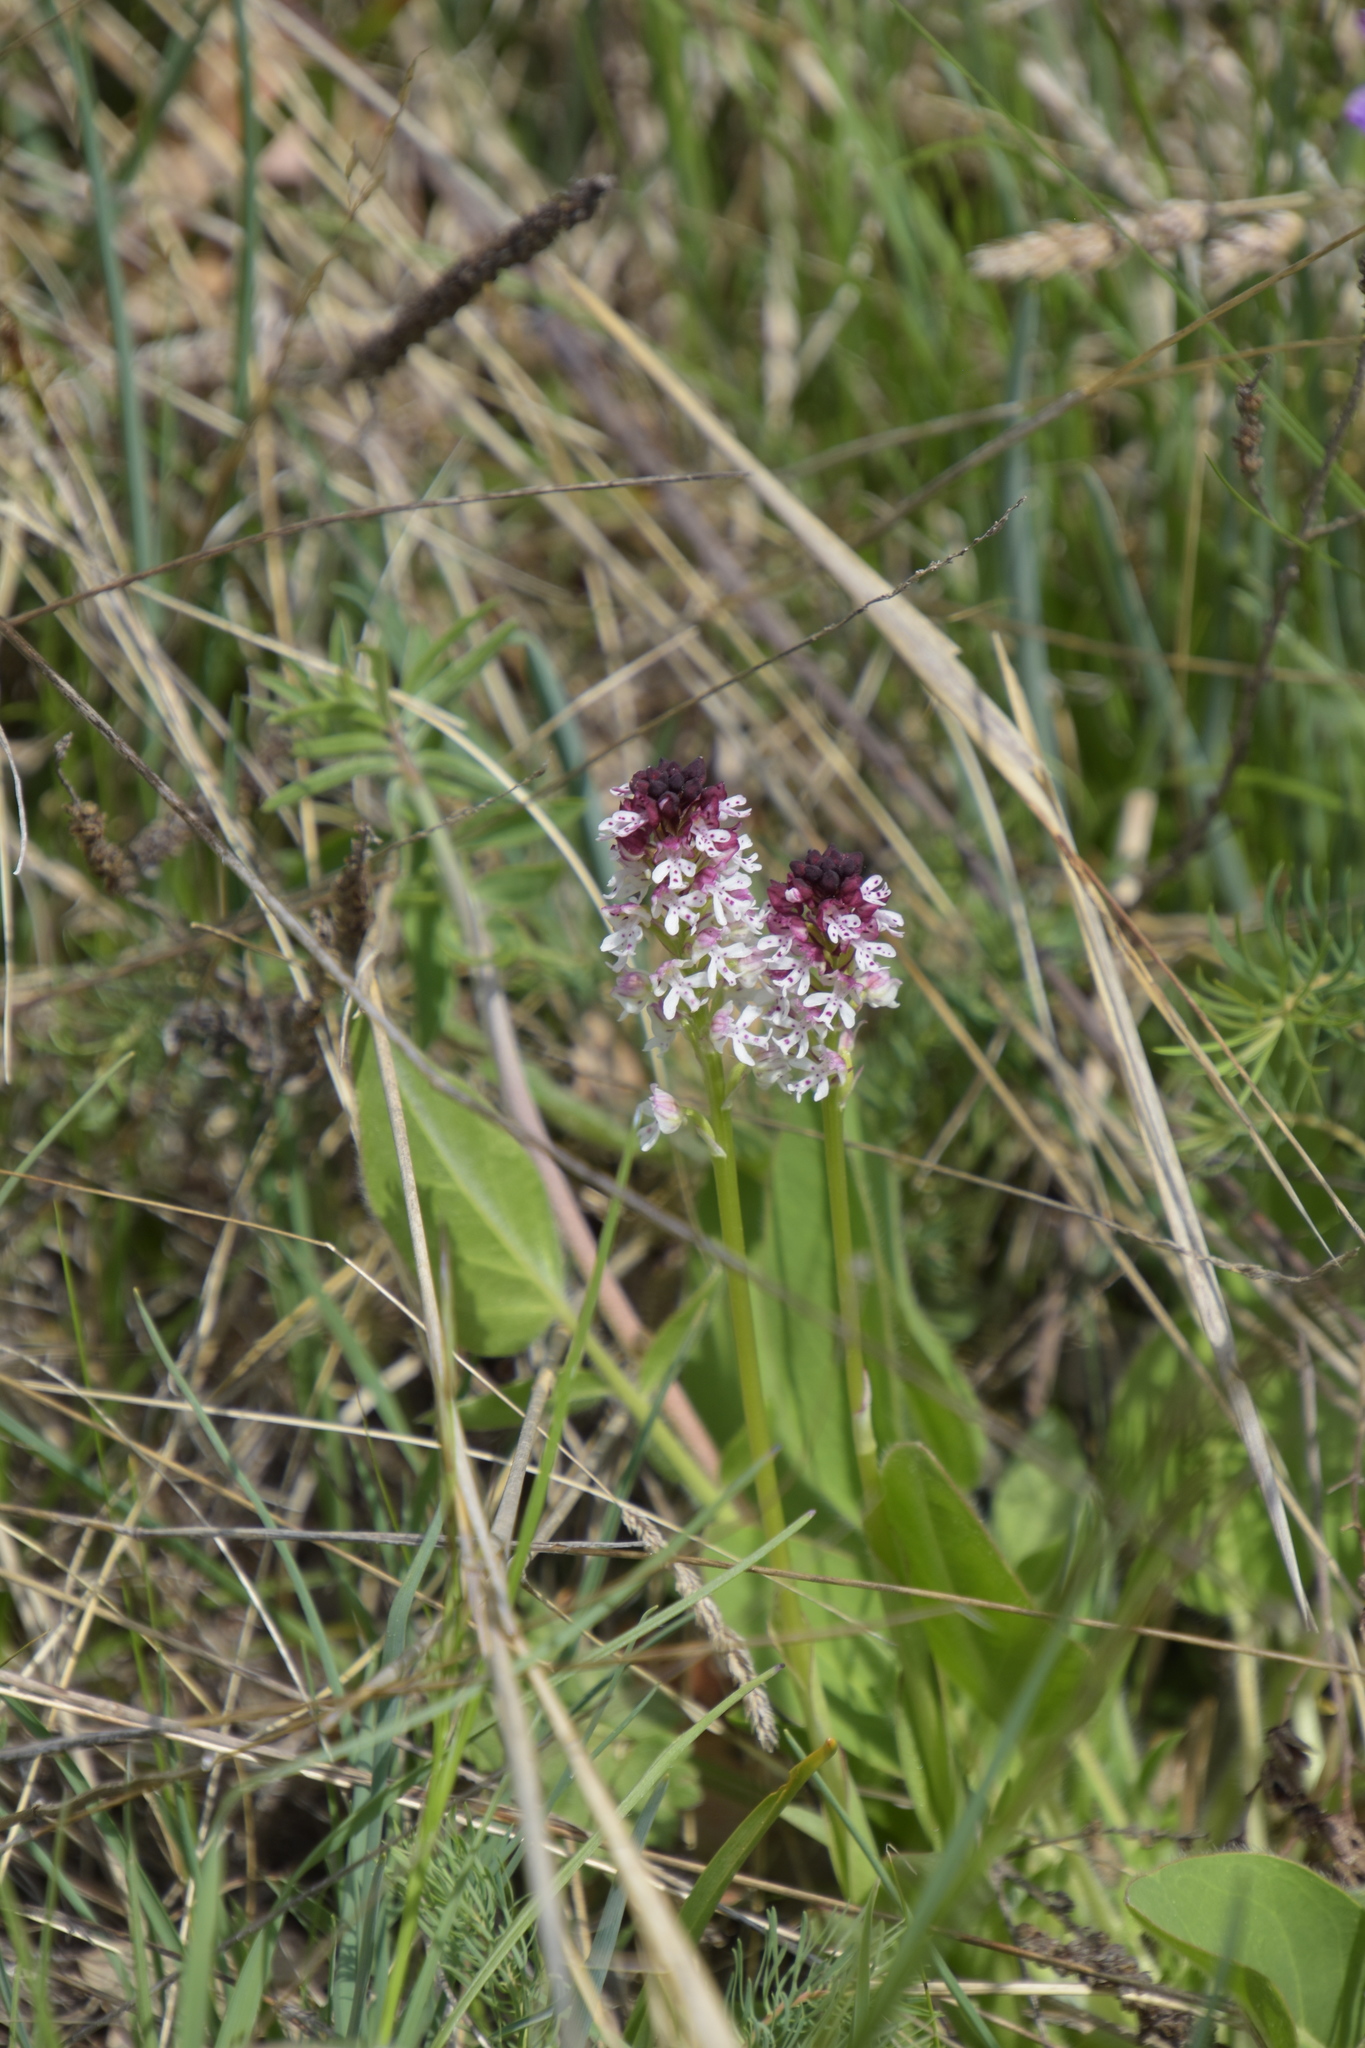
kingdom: Plantae
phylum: Tracheophyta
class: Liliopsida
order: Asparagales
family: Orchidaceae
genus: Neotinea
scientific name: Neotinea ustulata
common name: Burnt orchid
